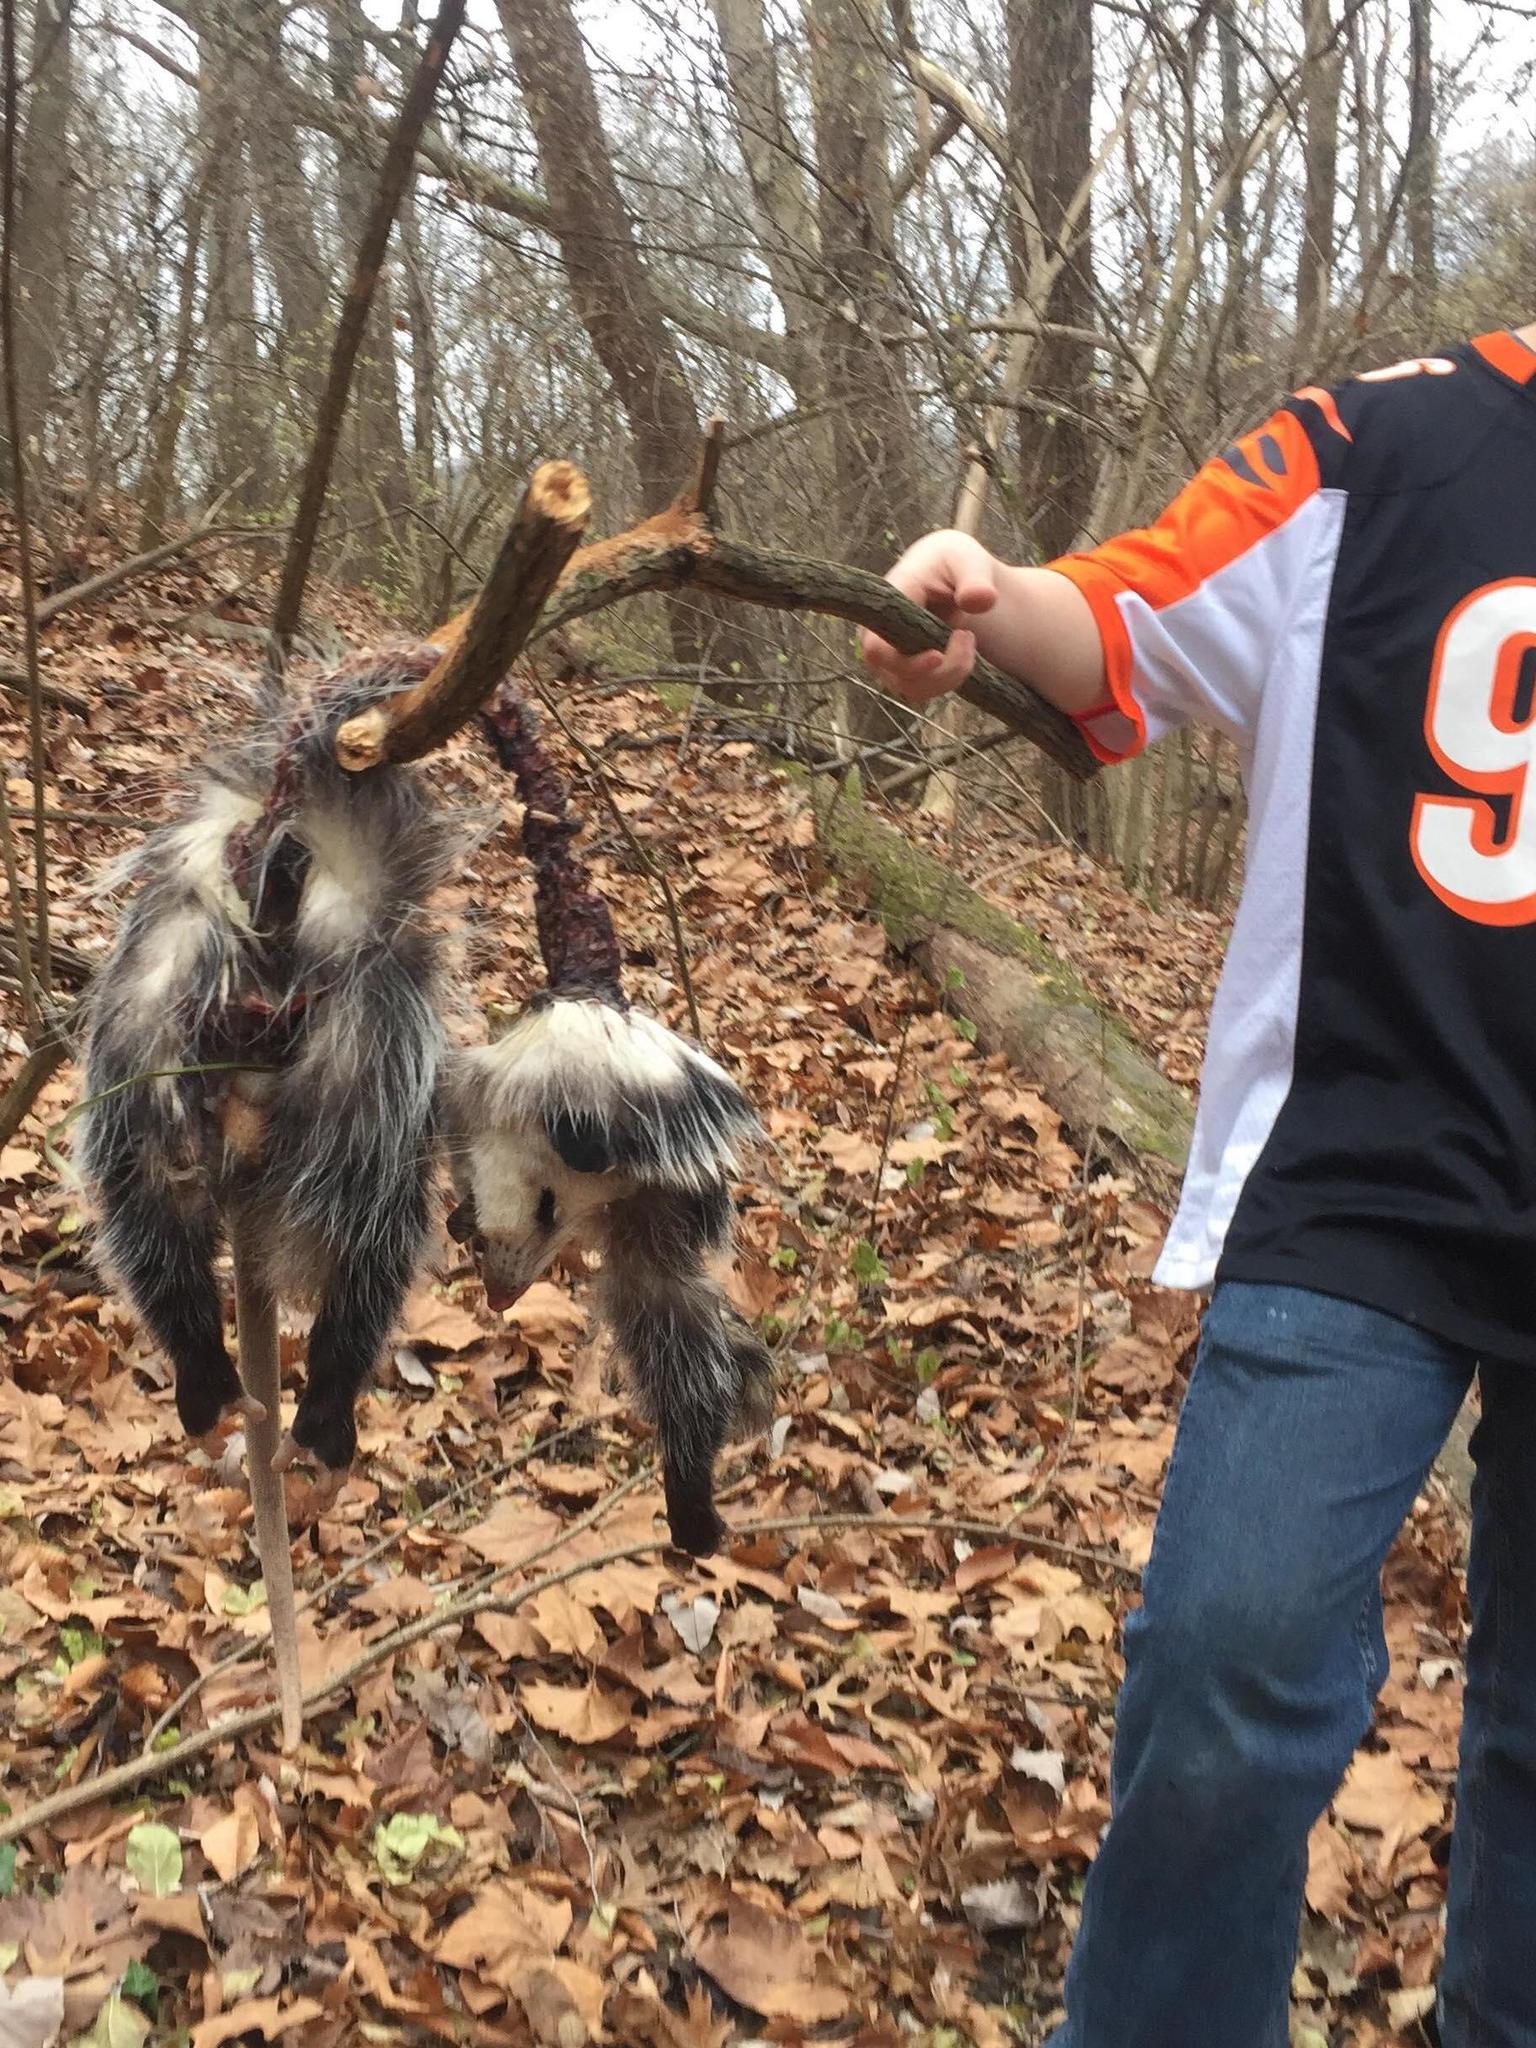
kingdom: Animalia
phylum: Chordata
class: Mammalia
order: Didelphimorphia
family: Didelphidae
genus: Didelphis
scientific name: Didelphis virginiana
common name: Virginia opossum
